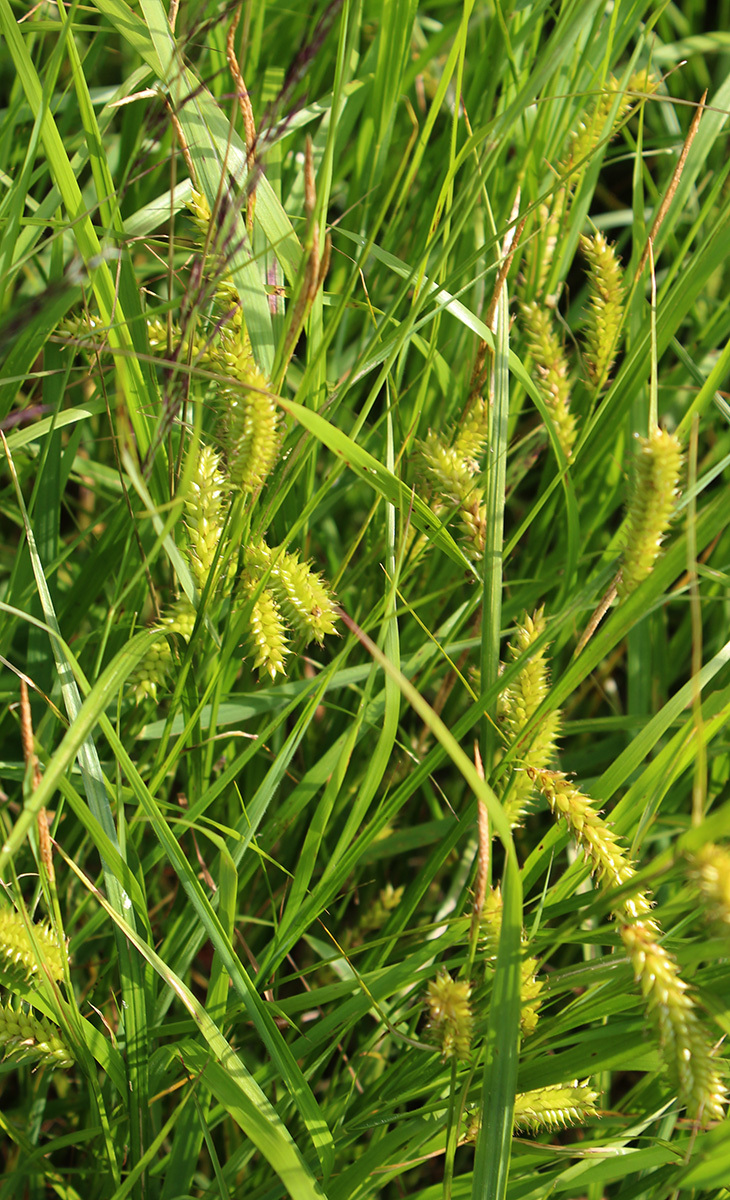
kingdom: Plantae
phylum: Tracheophyta
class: Liliopsida
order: Poales
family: Cyperaceae
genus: Carex
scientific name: Carex vesicaria
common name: Bladder-sedge
